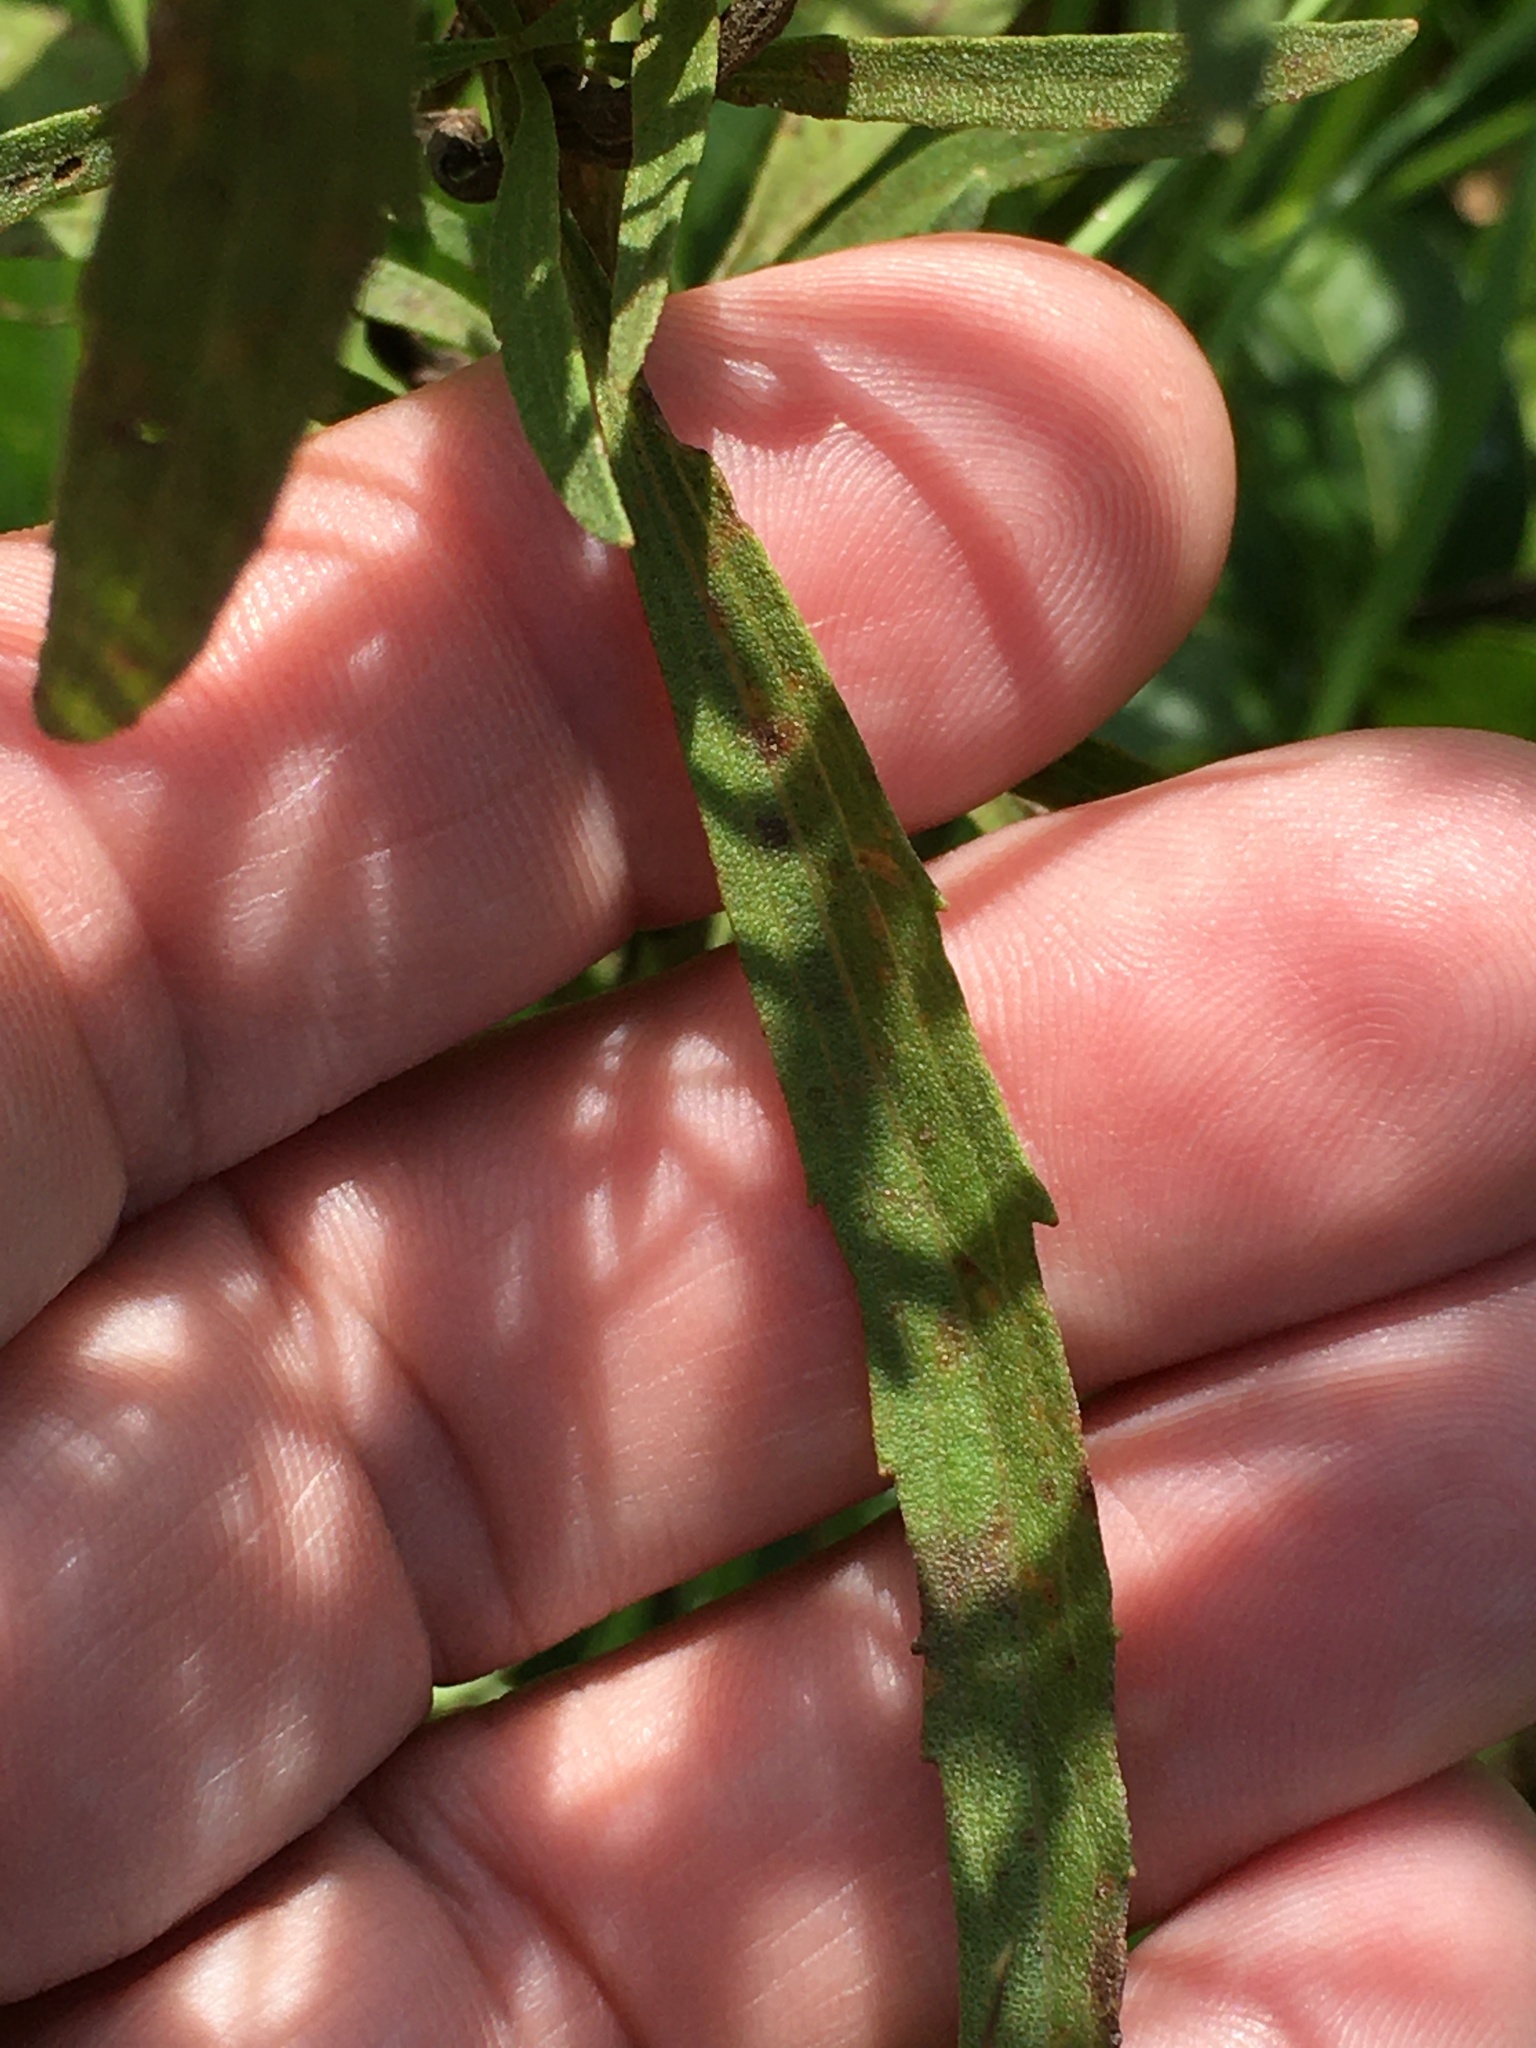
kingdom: Plantae
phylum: Tracheophyta
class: Magnoliopsida
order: Asterales
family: Asteraceae
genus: Eupatorium
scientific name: Eupatorium torreyanum
